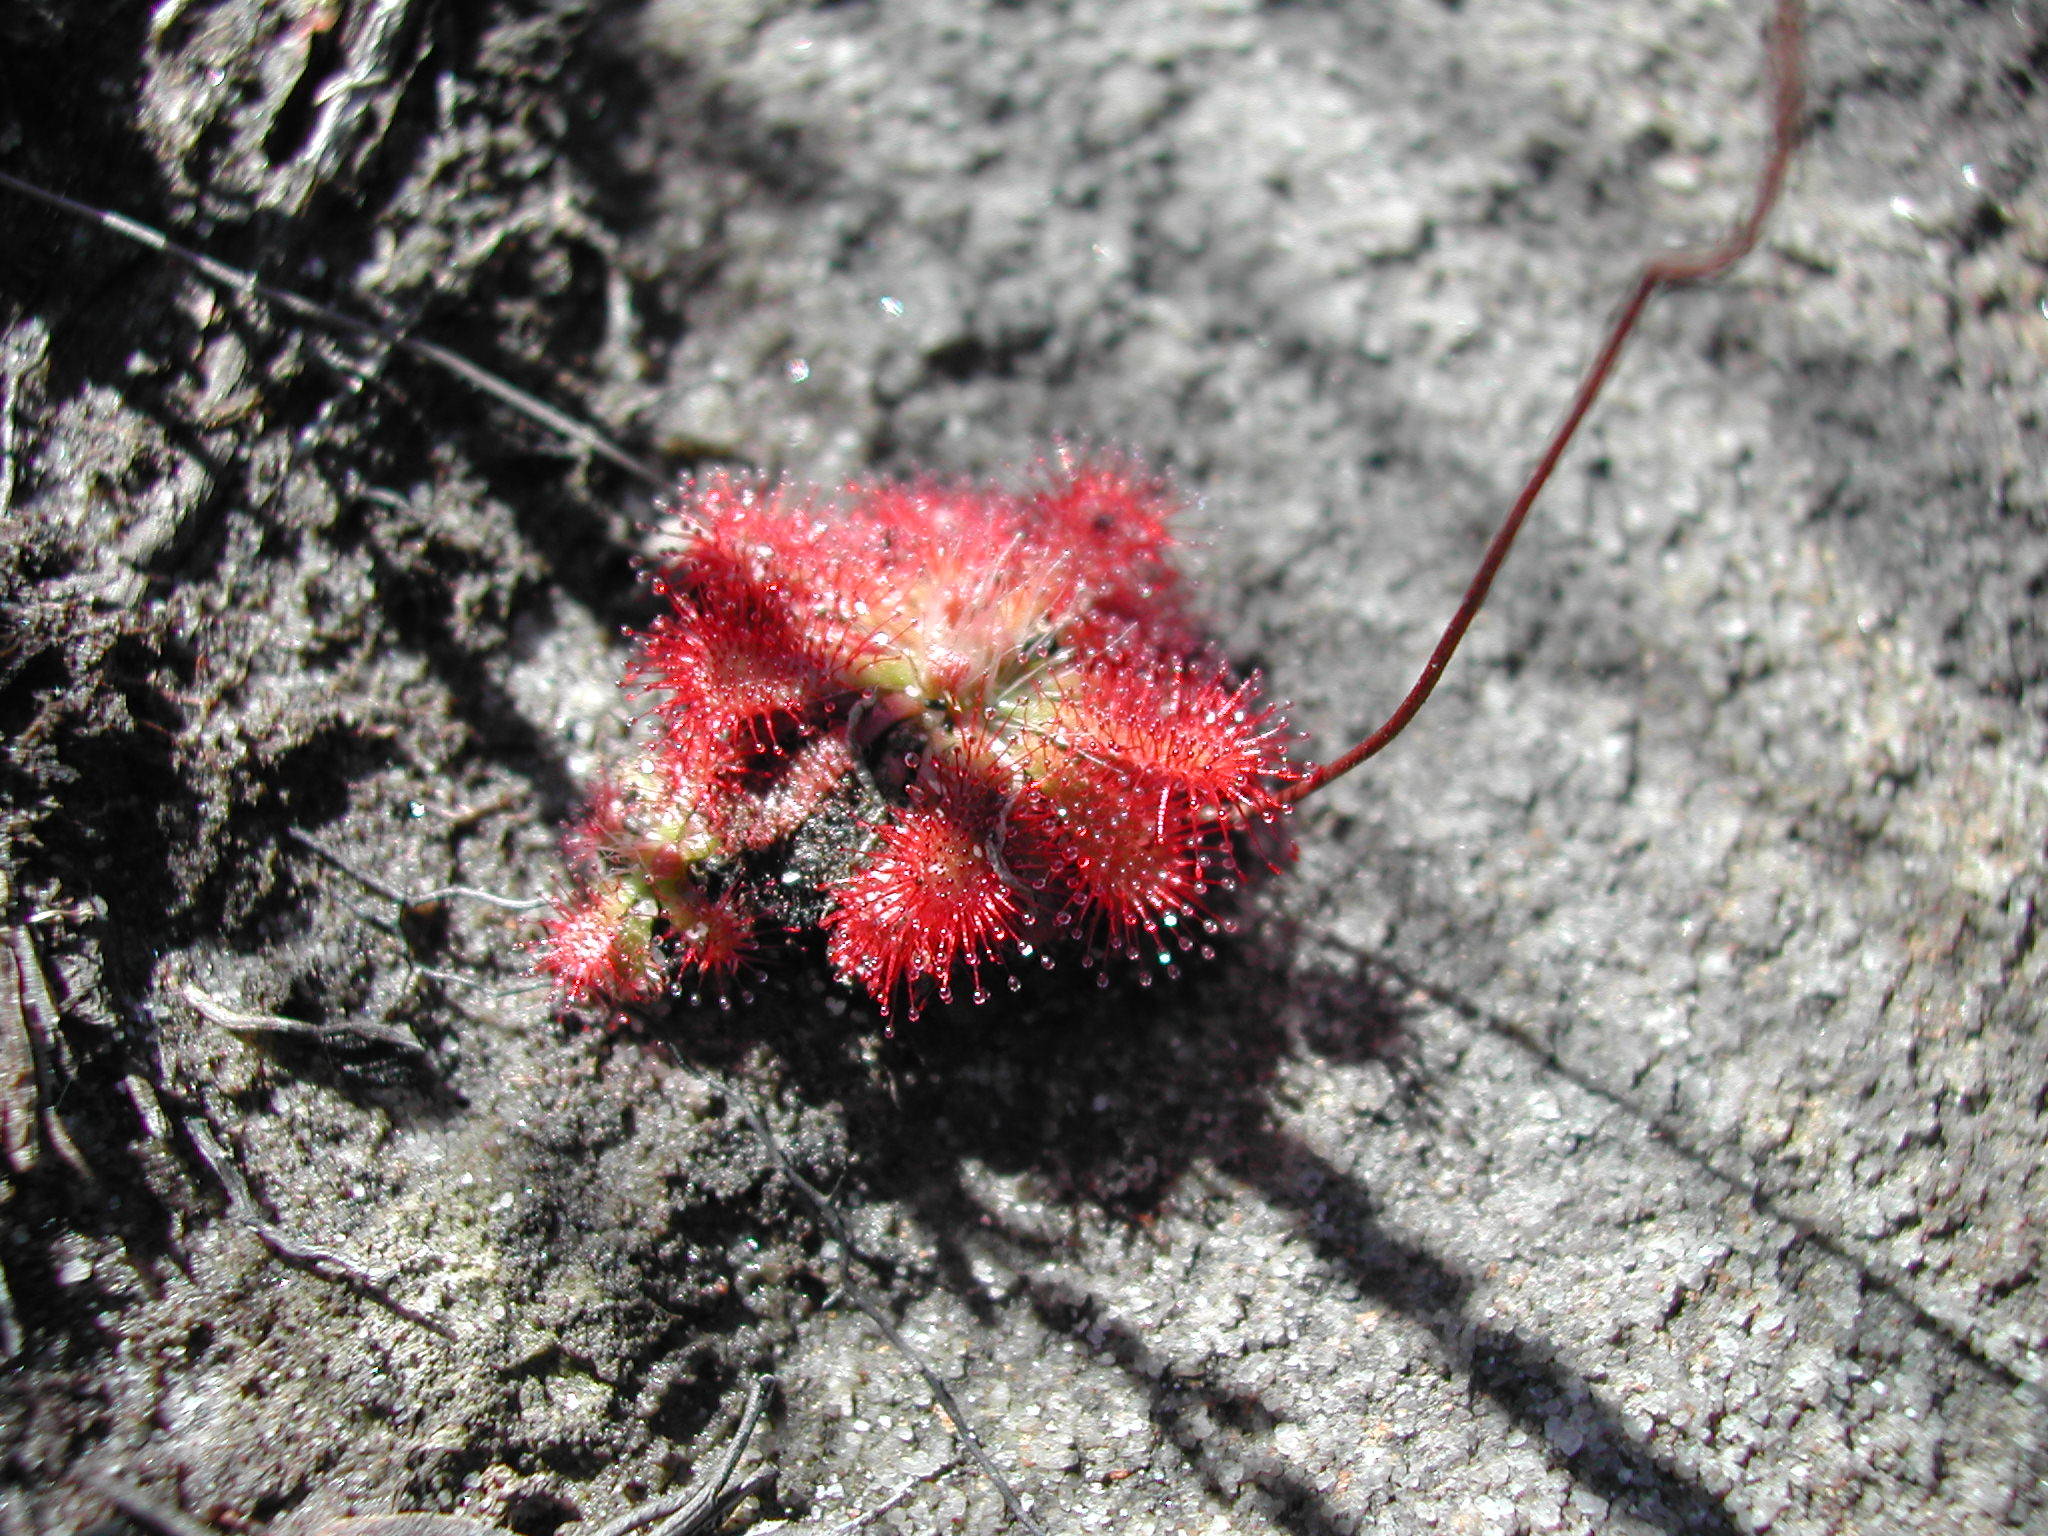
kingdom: Plantae
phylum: Tracheophyta
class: Magnoliopsida
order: Caryophyllales
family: Droseraceae
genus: Drosera
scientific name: Drosera spatulata
